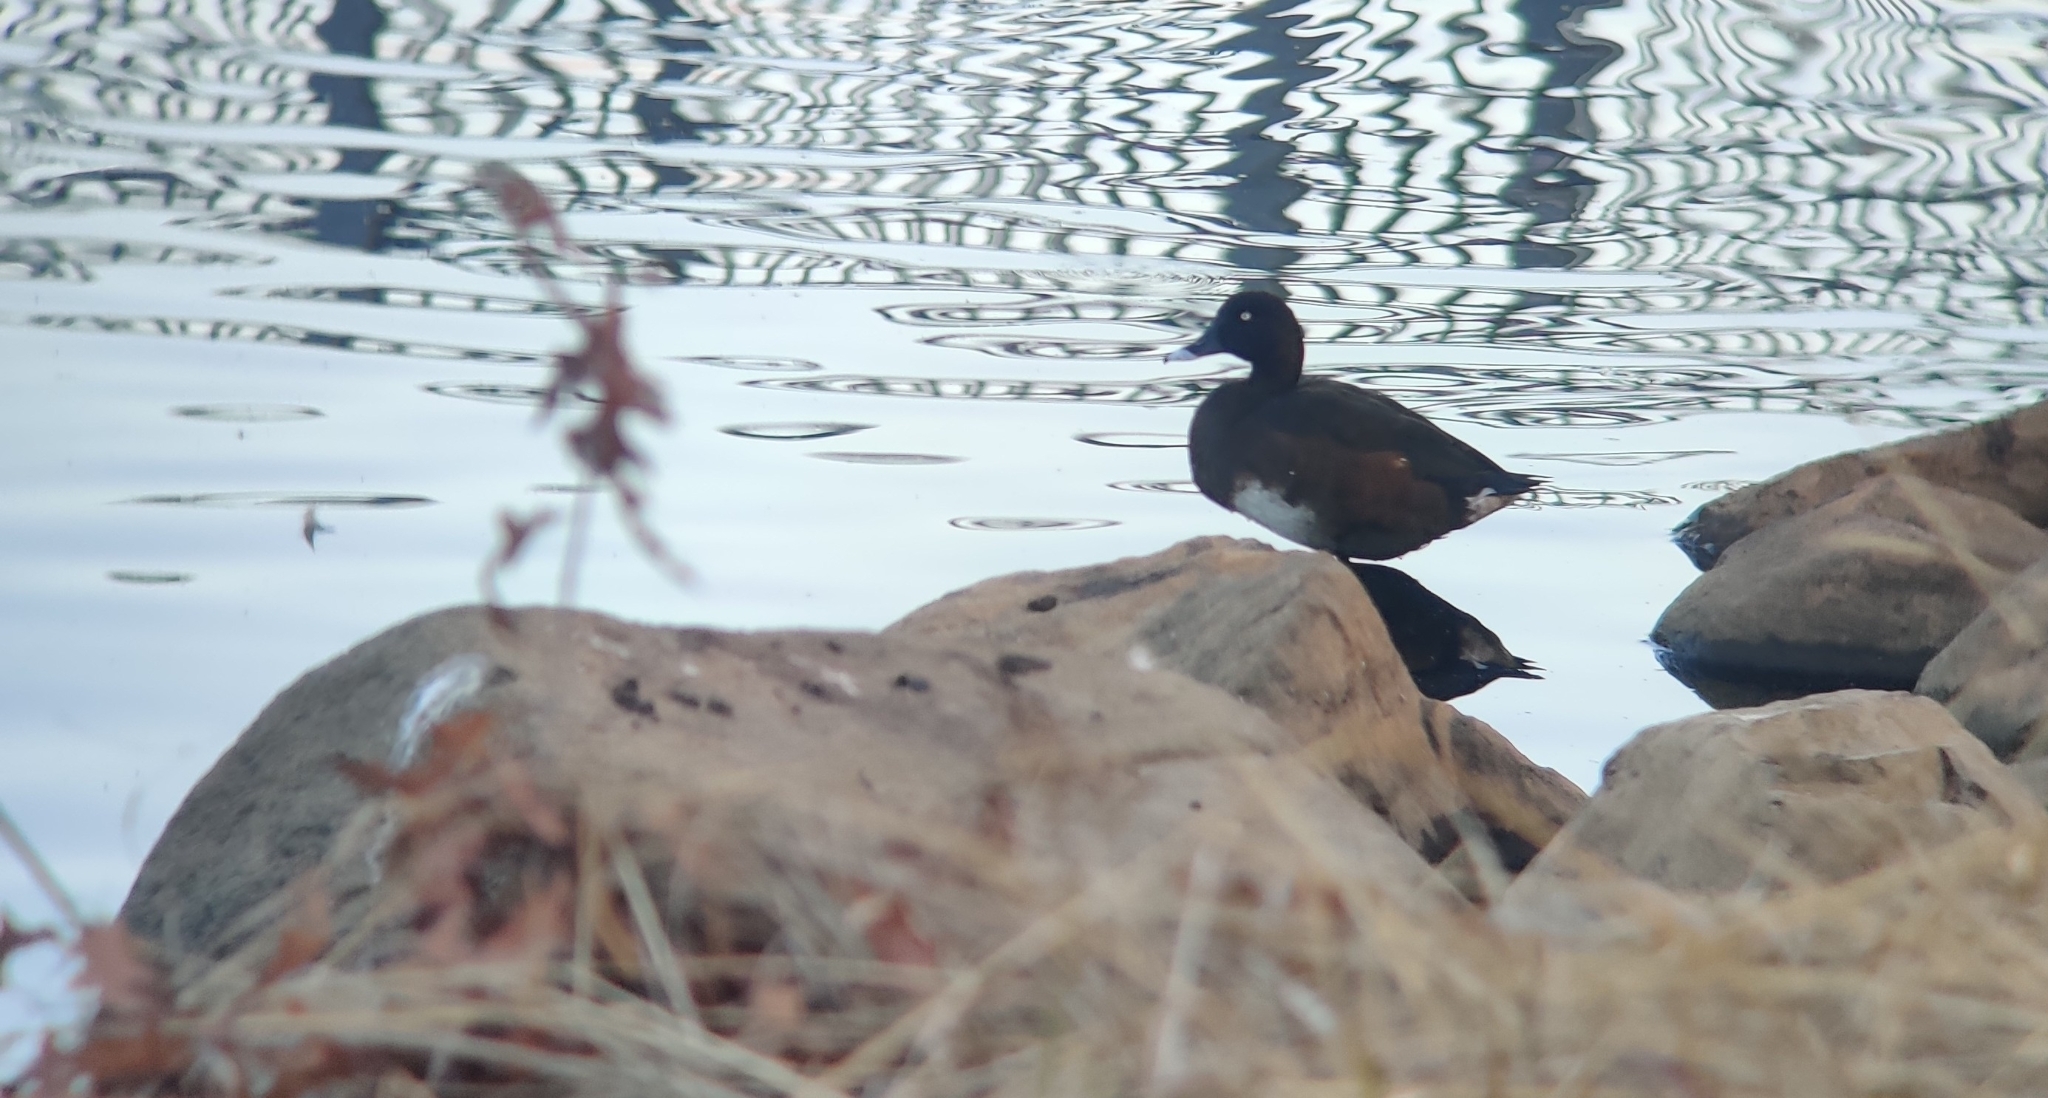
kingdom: Animalia
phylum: Chordata
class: Aves
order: Anseriformes
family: Anatidae
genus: Aythya
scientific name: Aythya australis
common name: Hardhead
